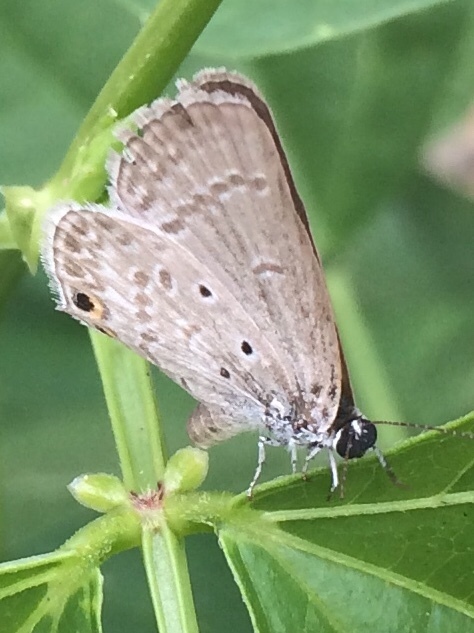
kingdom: Animalia
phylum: Arthropoda
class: Insecta
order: Lepidoptera
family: Lycaenidae
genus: Euchrysops
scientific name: Euchrysops cnejus
